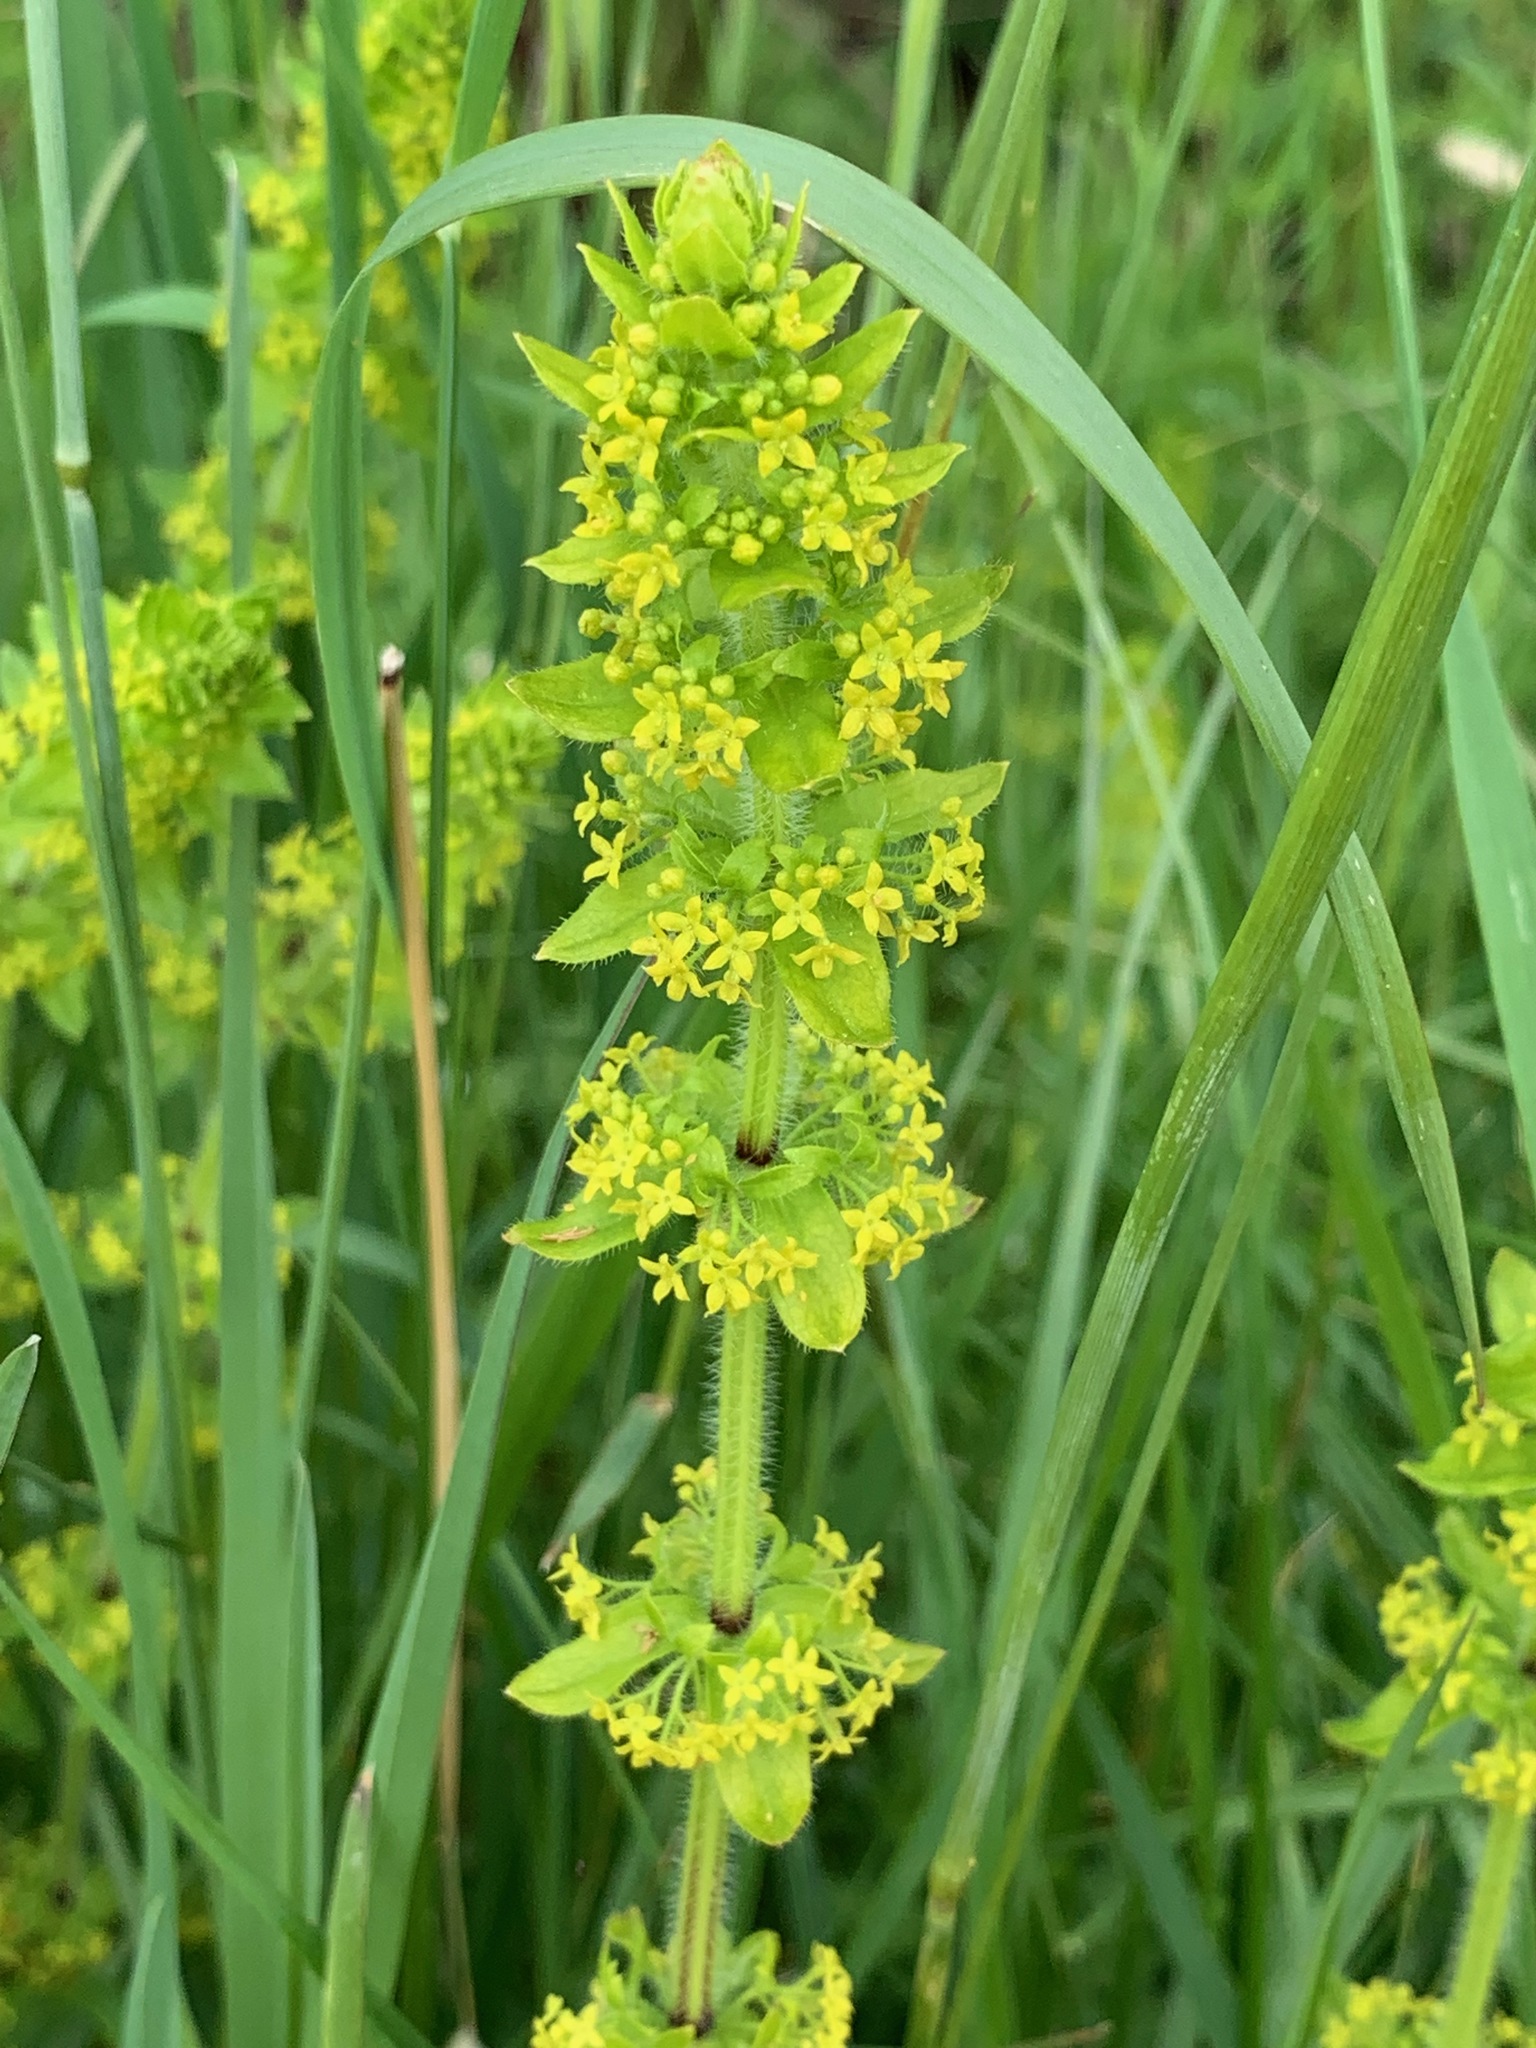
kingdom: Plantae
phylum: Tracheophyta
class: Magnoliopsida
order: Gentianales
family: Rubiaceae
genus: Cruciata
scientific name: Cruciata laevipes
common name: Crosswort
